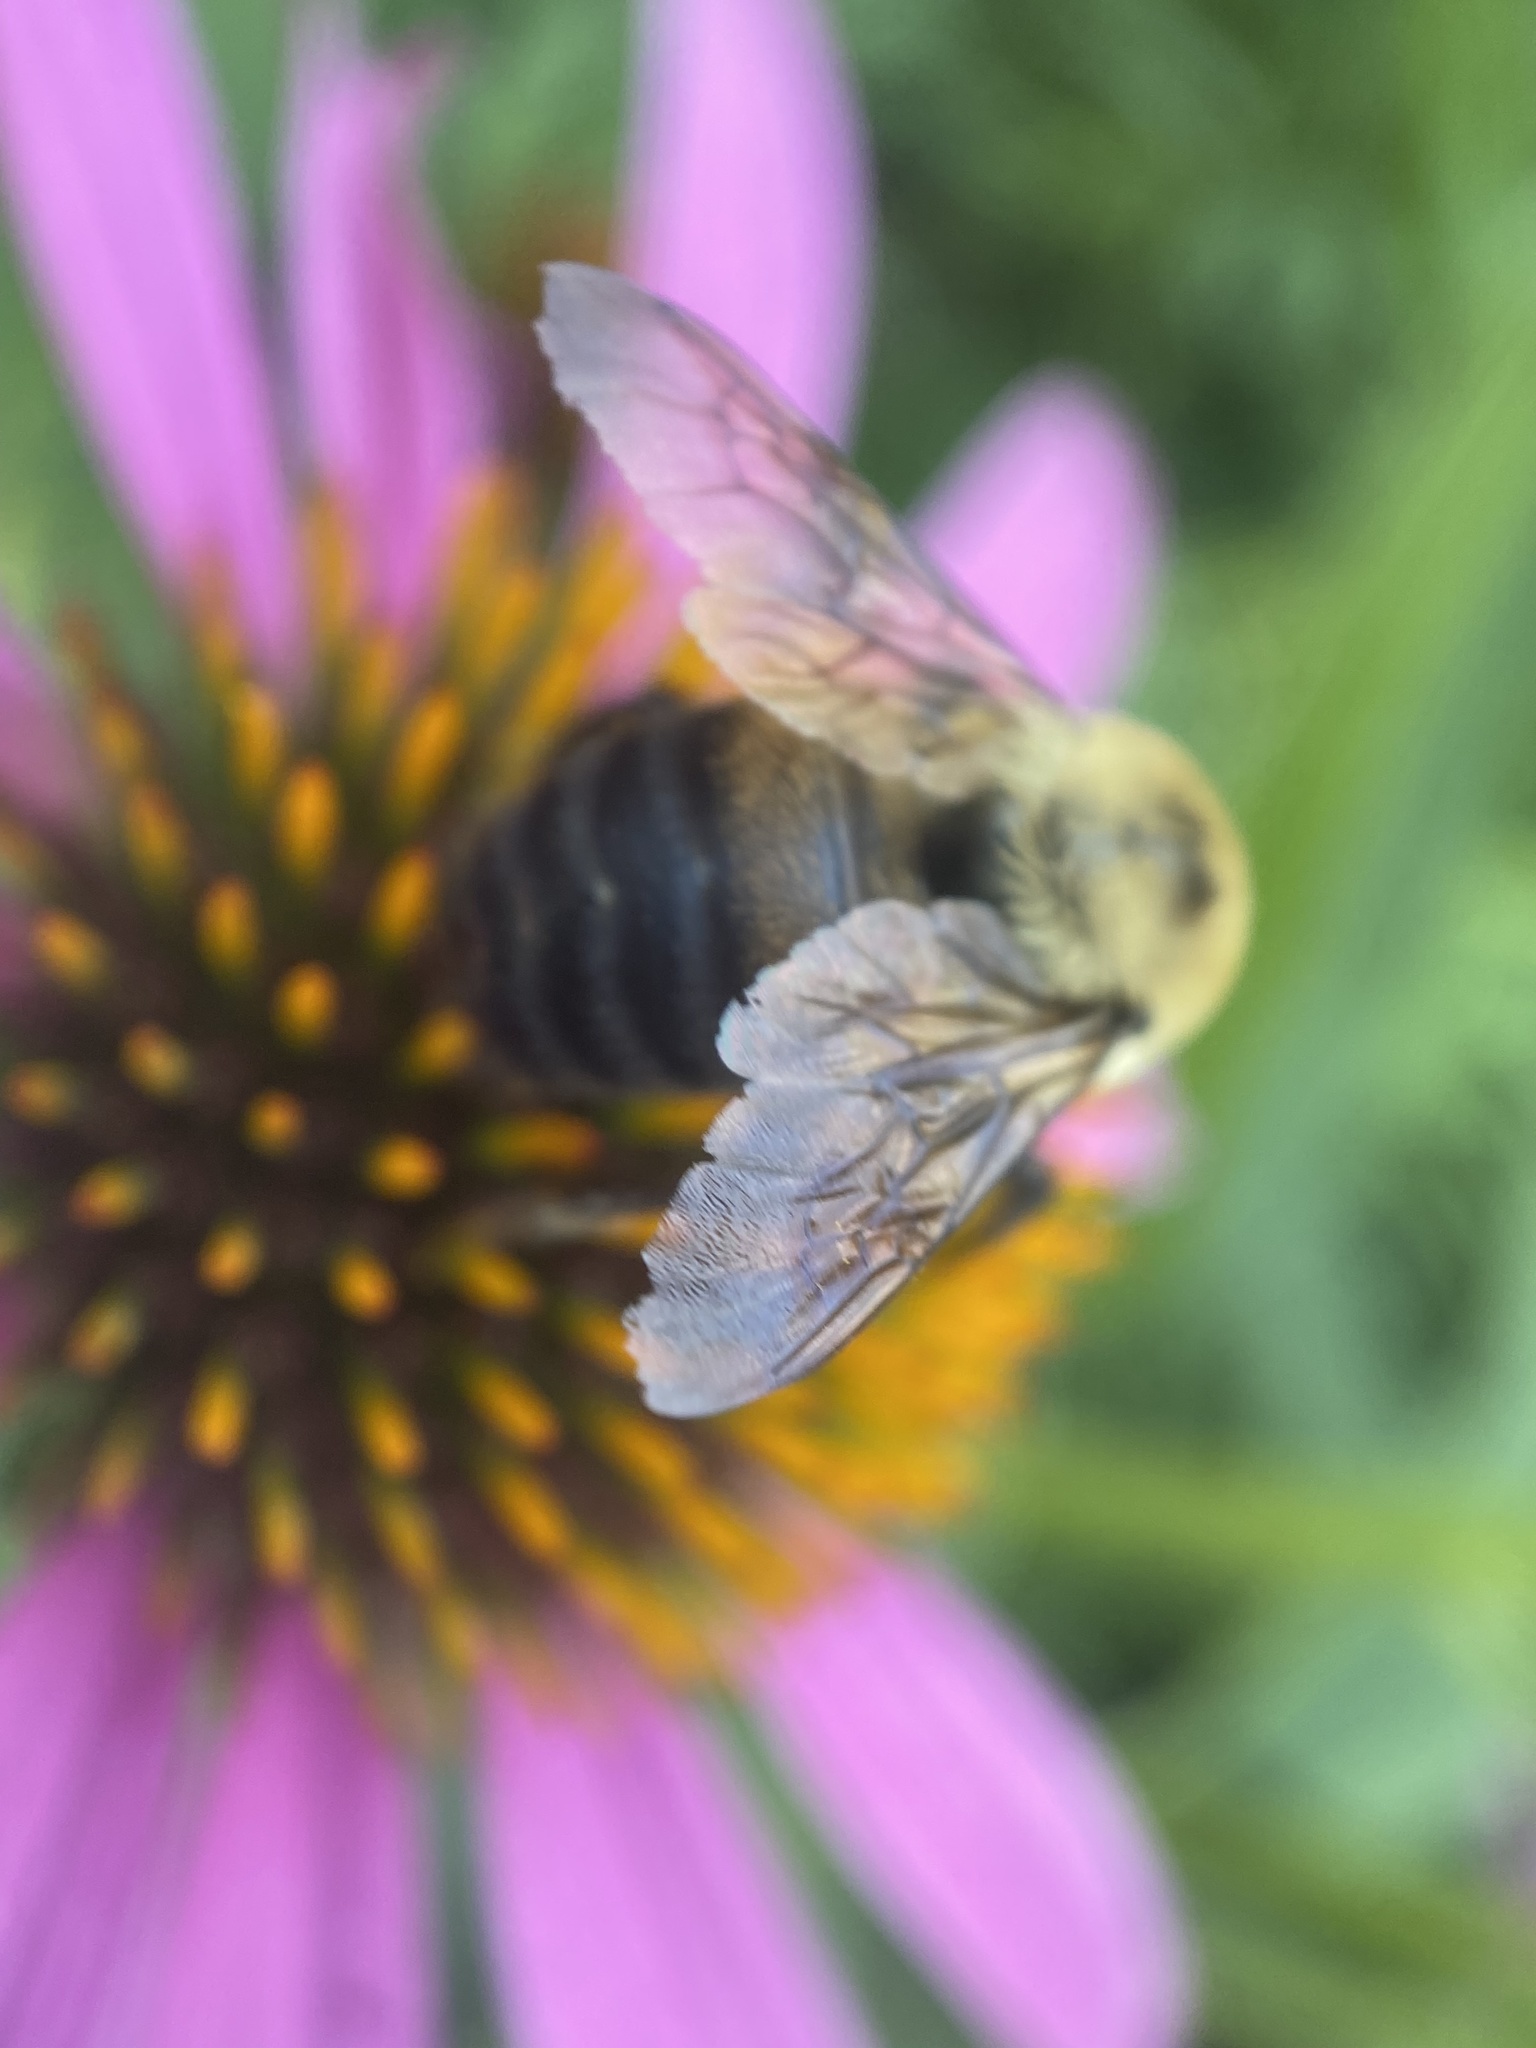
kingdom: Animalia
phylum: Arthropoda
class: Insecta
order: Hymenoptera
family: Apidae
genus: Bombus
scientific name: Bombus griseocollis
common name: Brown-belted bumble bee
